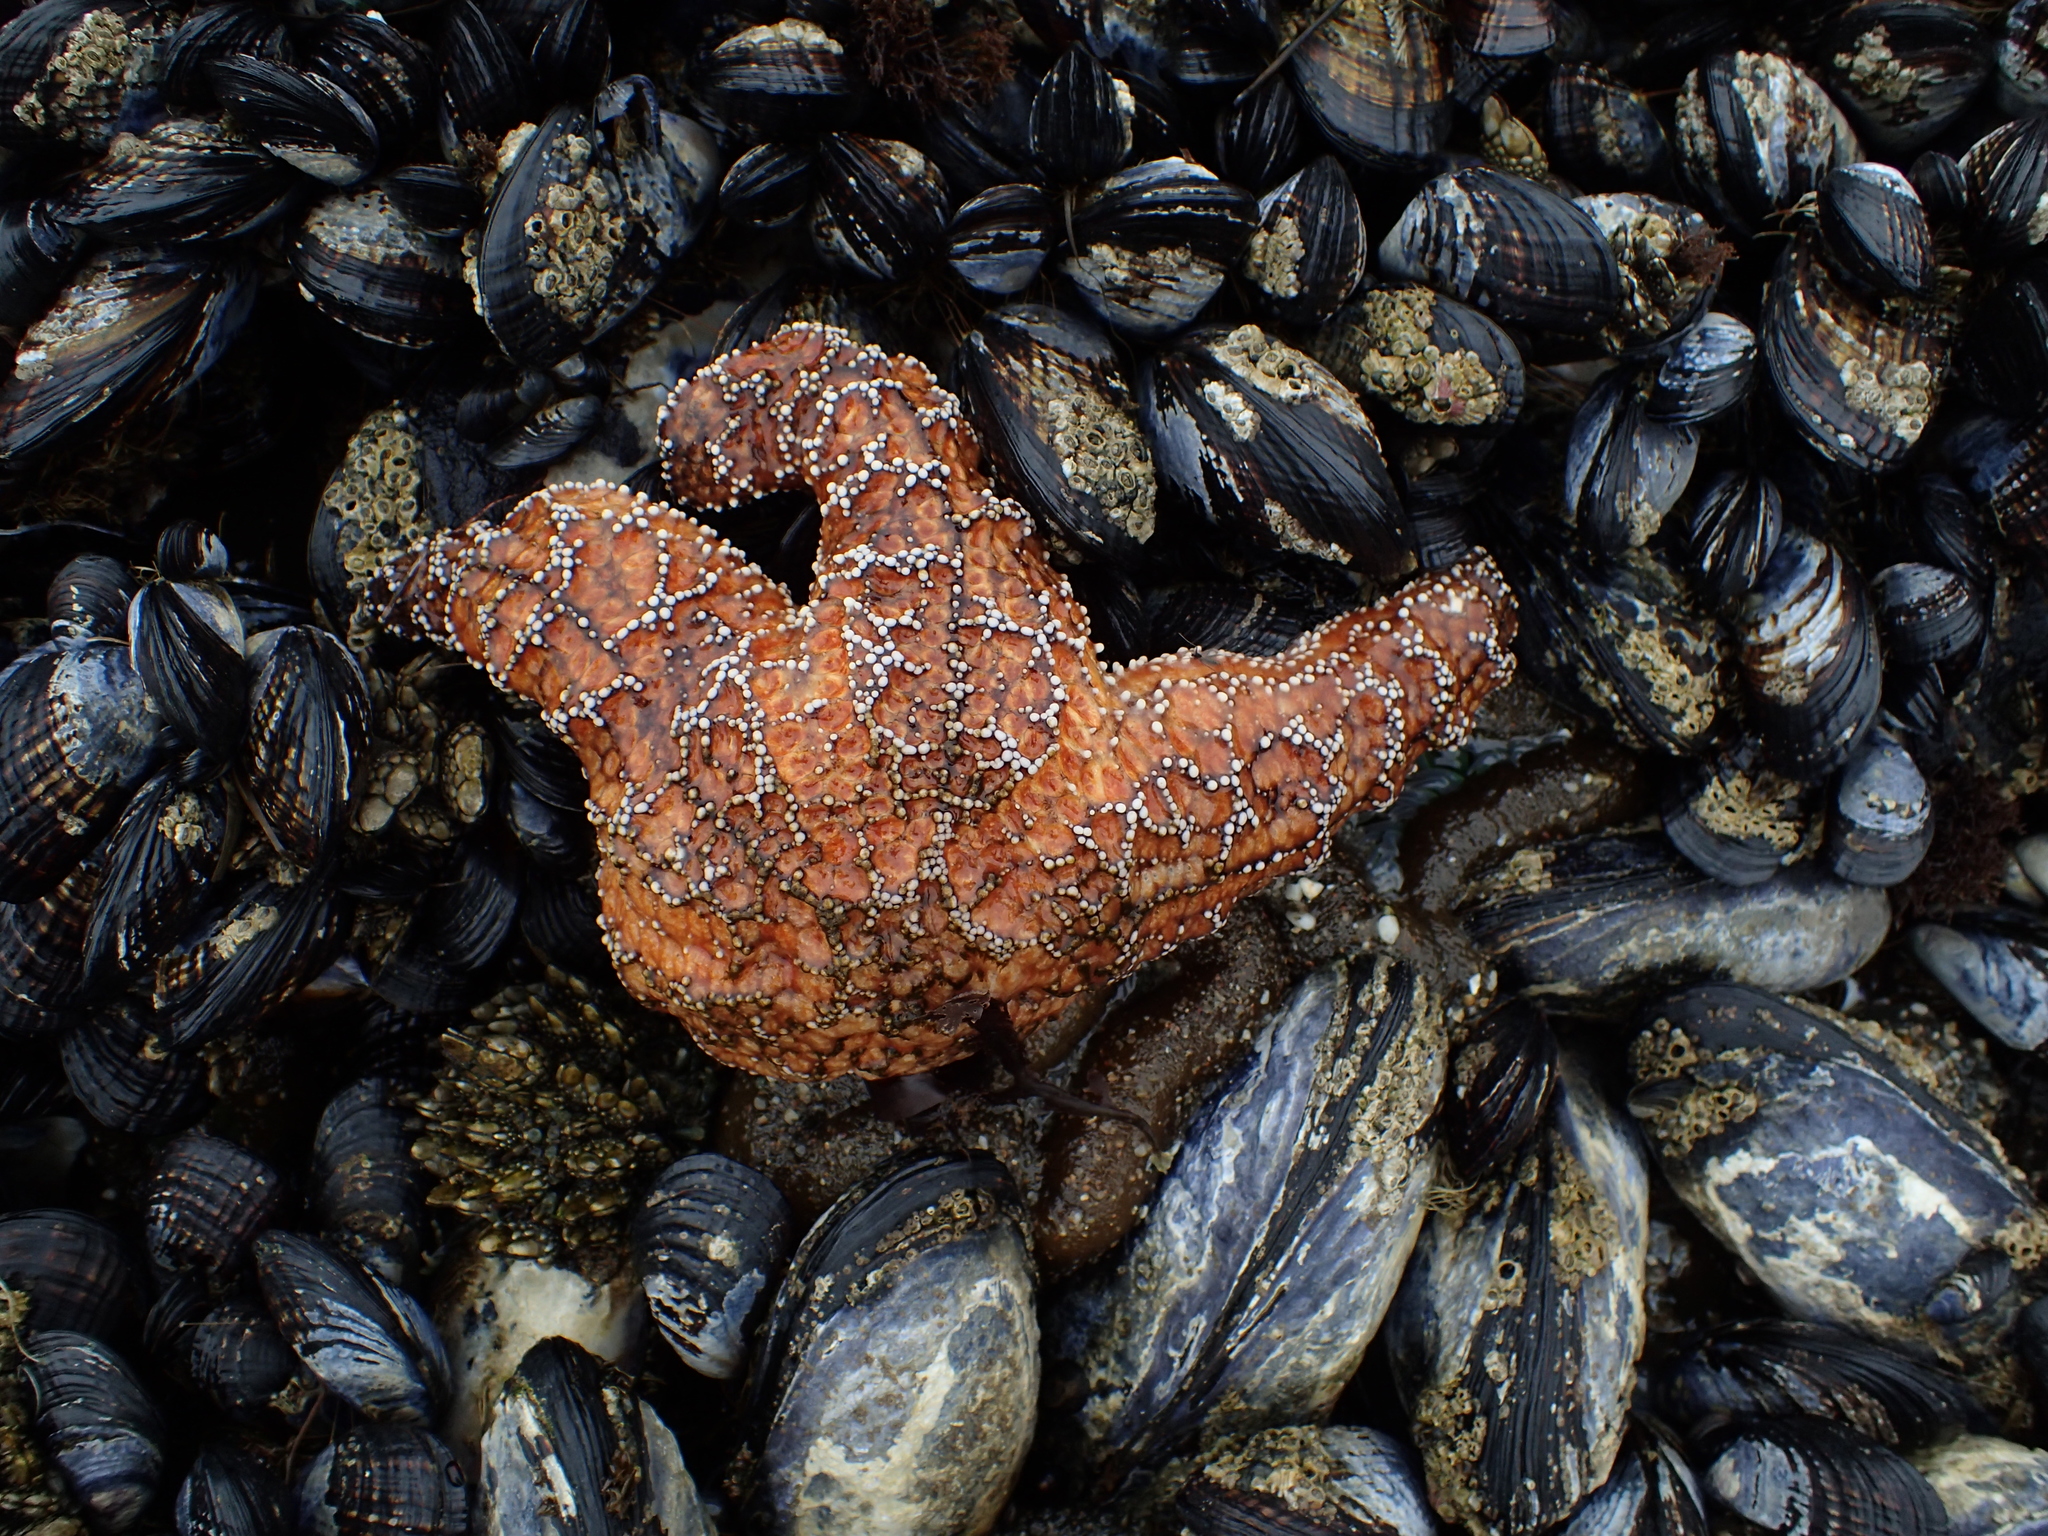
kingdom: Animalia
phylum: Echinodermata
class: Asteroidea
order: Forcipulatida
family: Asteriidae
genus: Pisaster
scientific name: Pisaster ochraceus
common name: Ochre stars
